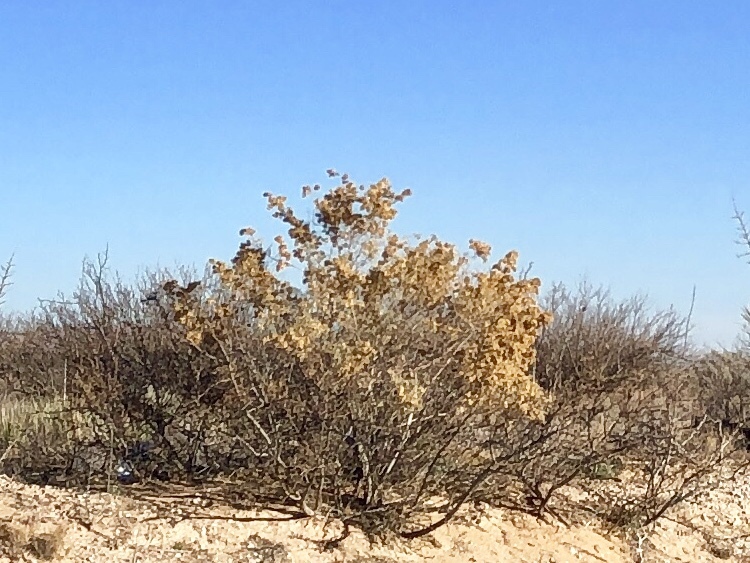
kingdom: Plantae
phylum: Tracheophyta
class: Magnoliopsida
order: Caryophyllales
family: Amaranthaceae
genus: Atriplex
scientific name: Atriplex canescens
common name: Four-wing saltbush
